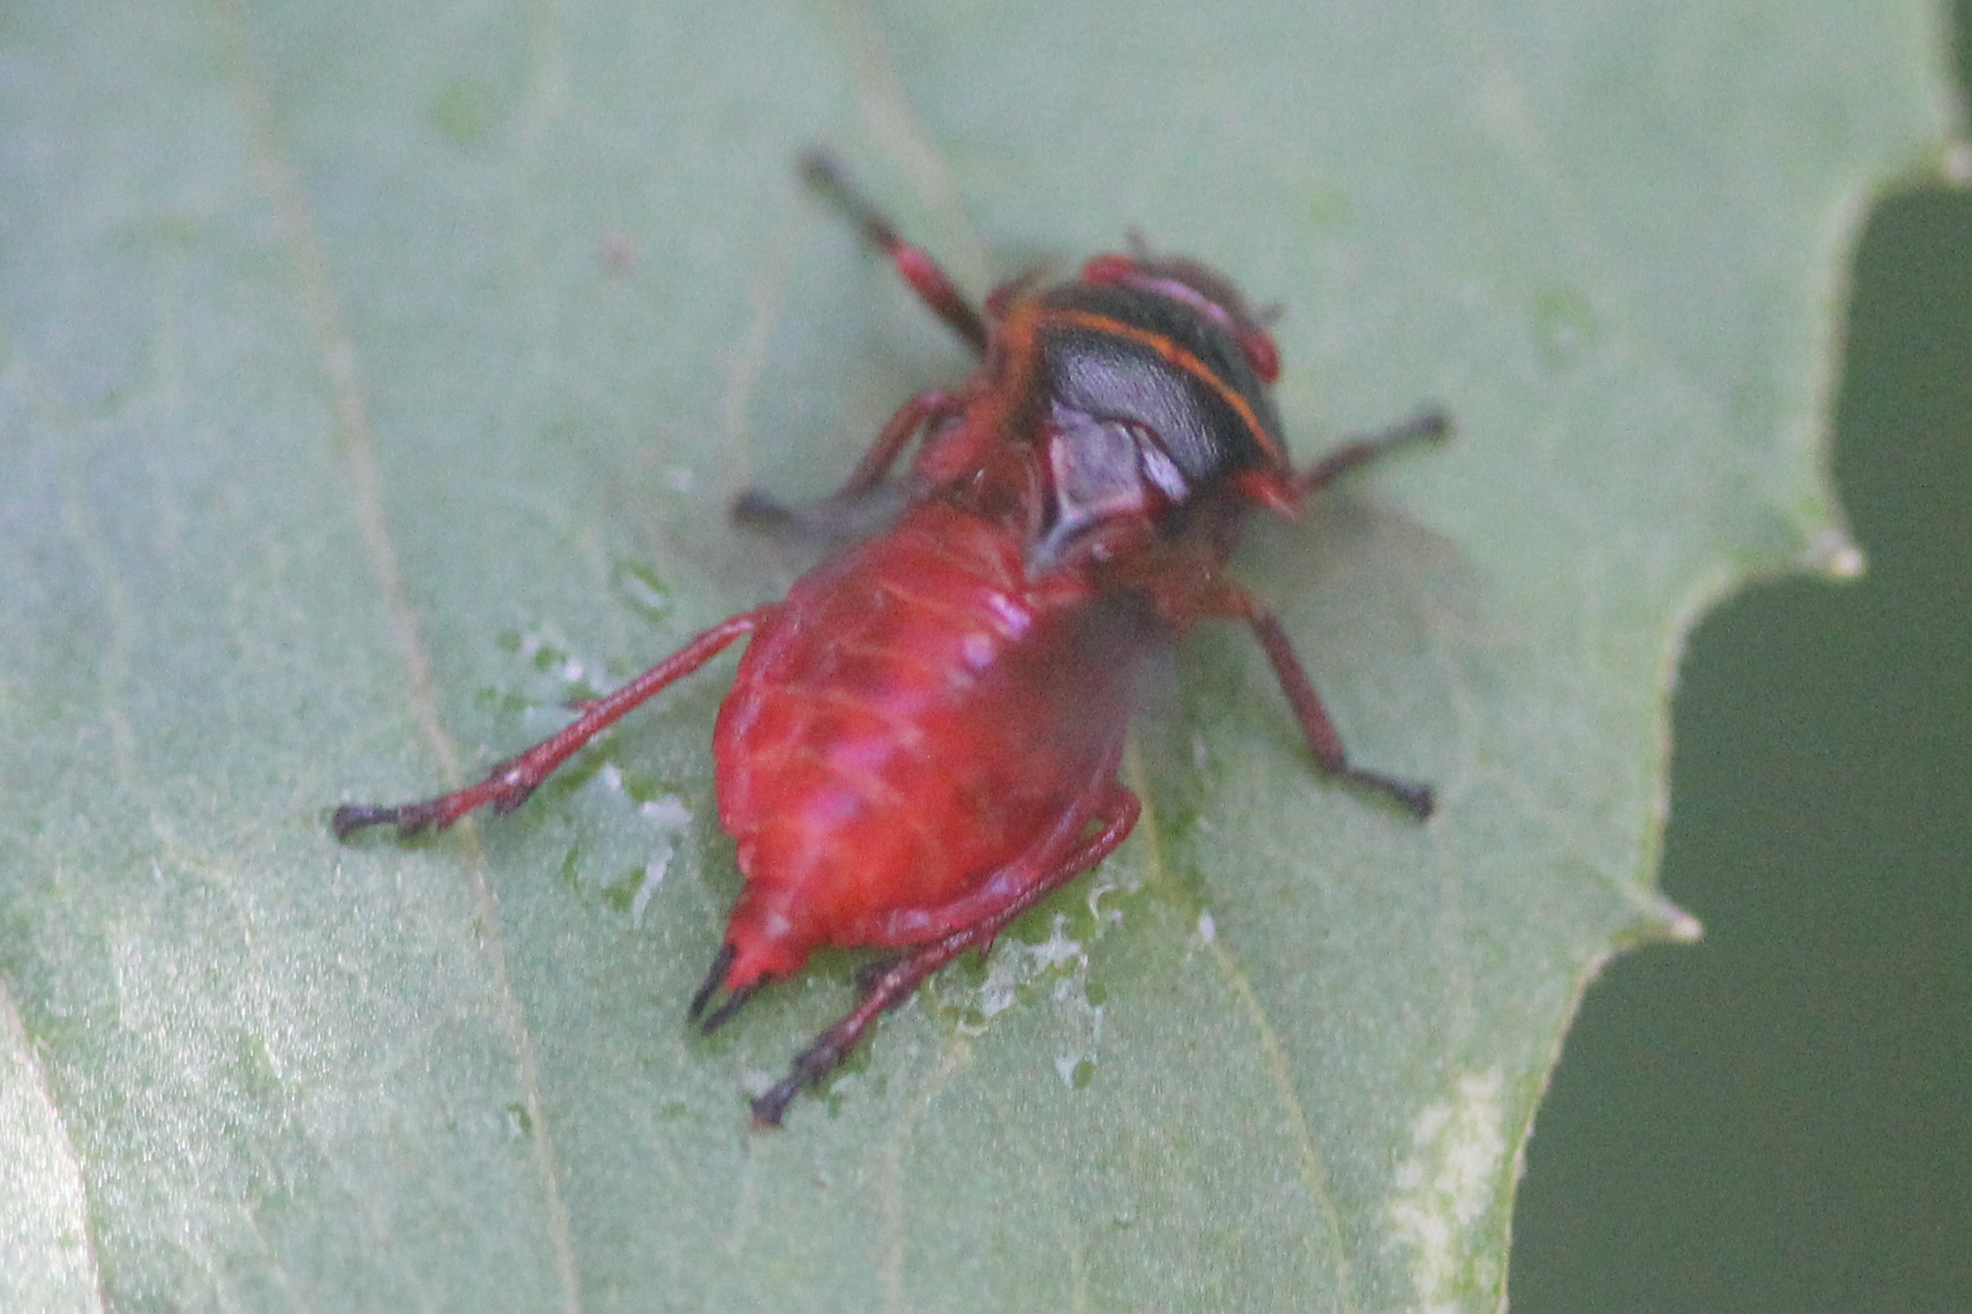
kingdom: Animalia
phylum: Arthropoda
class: Insecta
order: Hemiptera
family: Cercopidae
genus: Prosapia
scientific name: Prosapia bicincta
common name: Twolined spittlebug
